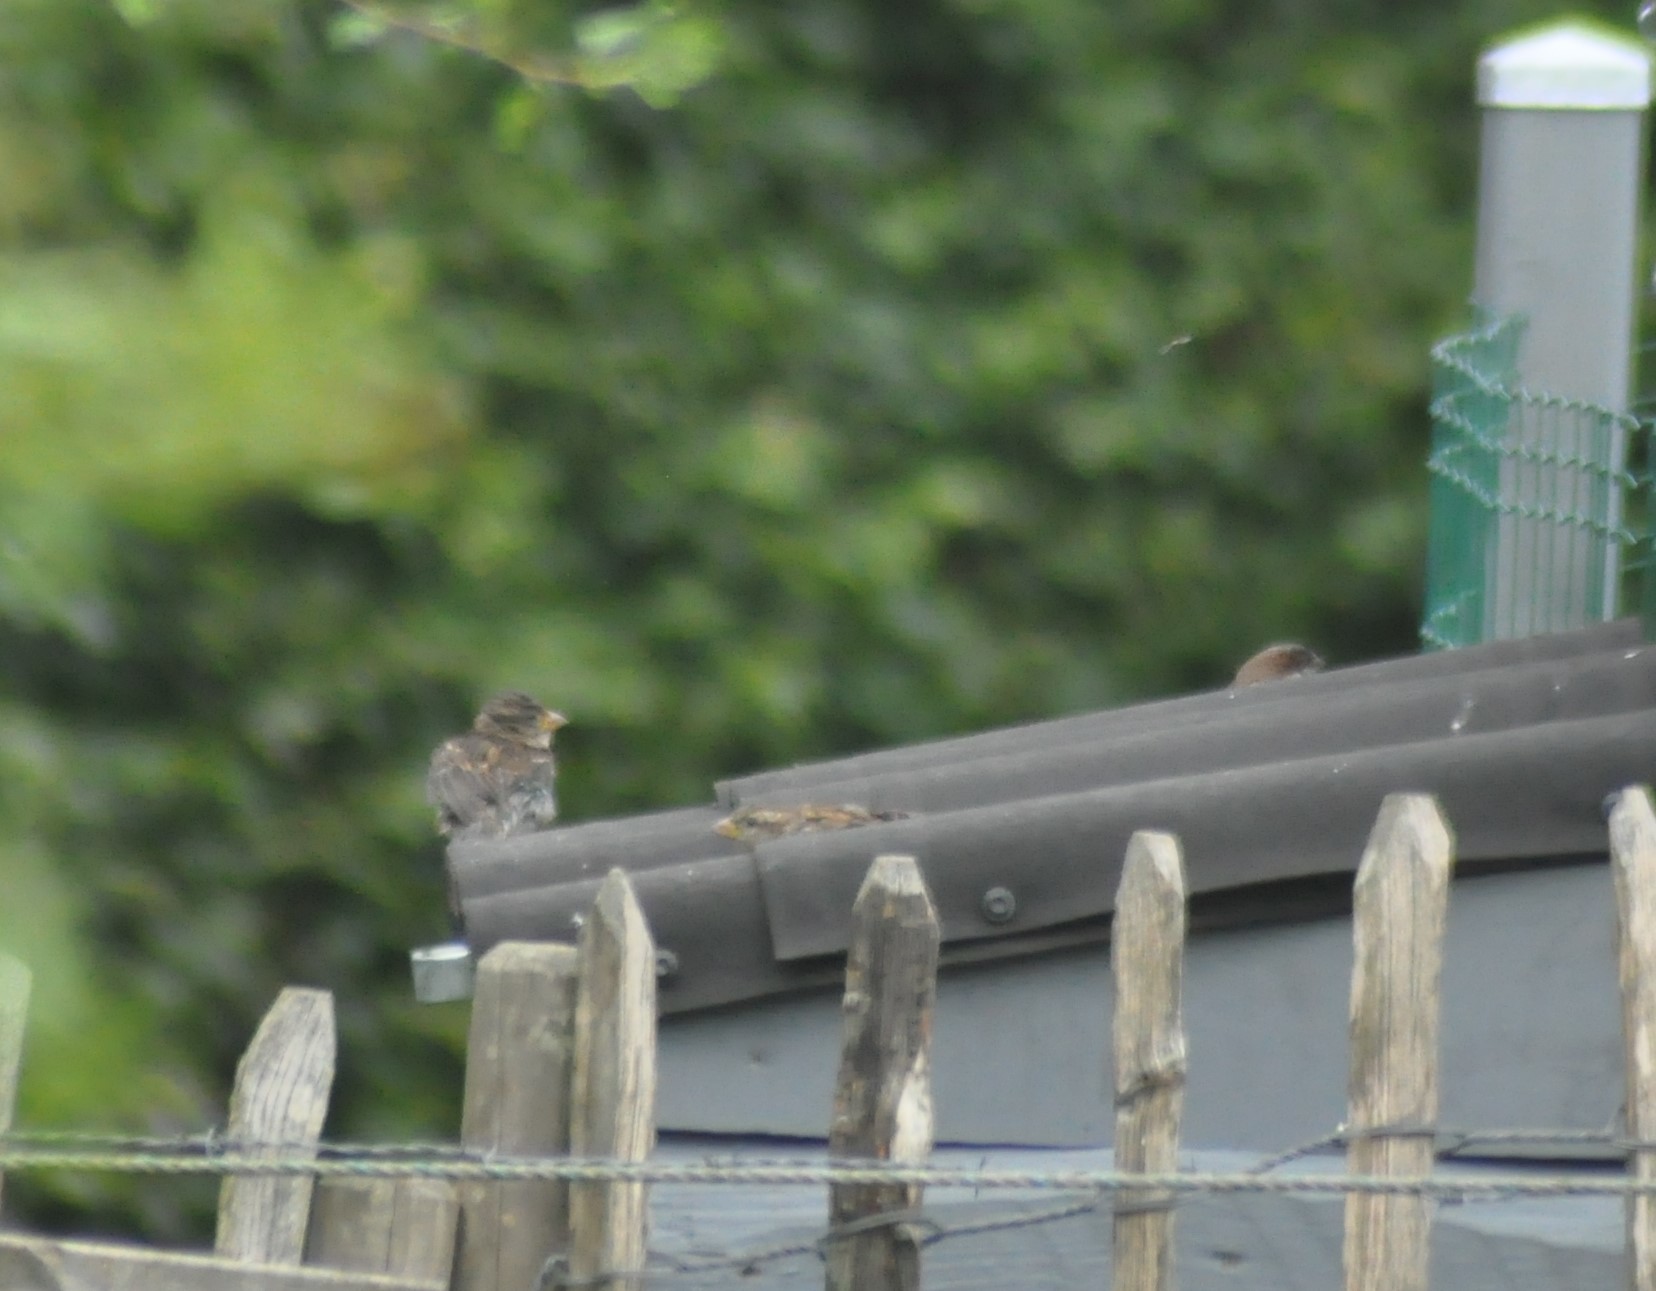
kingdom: Animalia
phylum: Chordata
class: Aves
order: Passeriformes
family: Passeridae
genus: Passer
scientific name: Passer domesticus
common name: House sparrow
